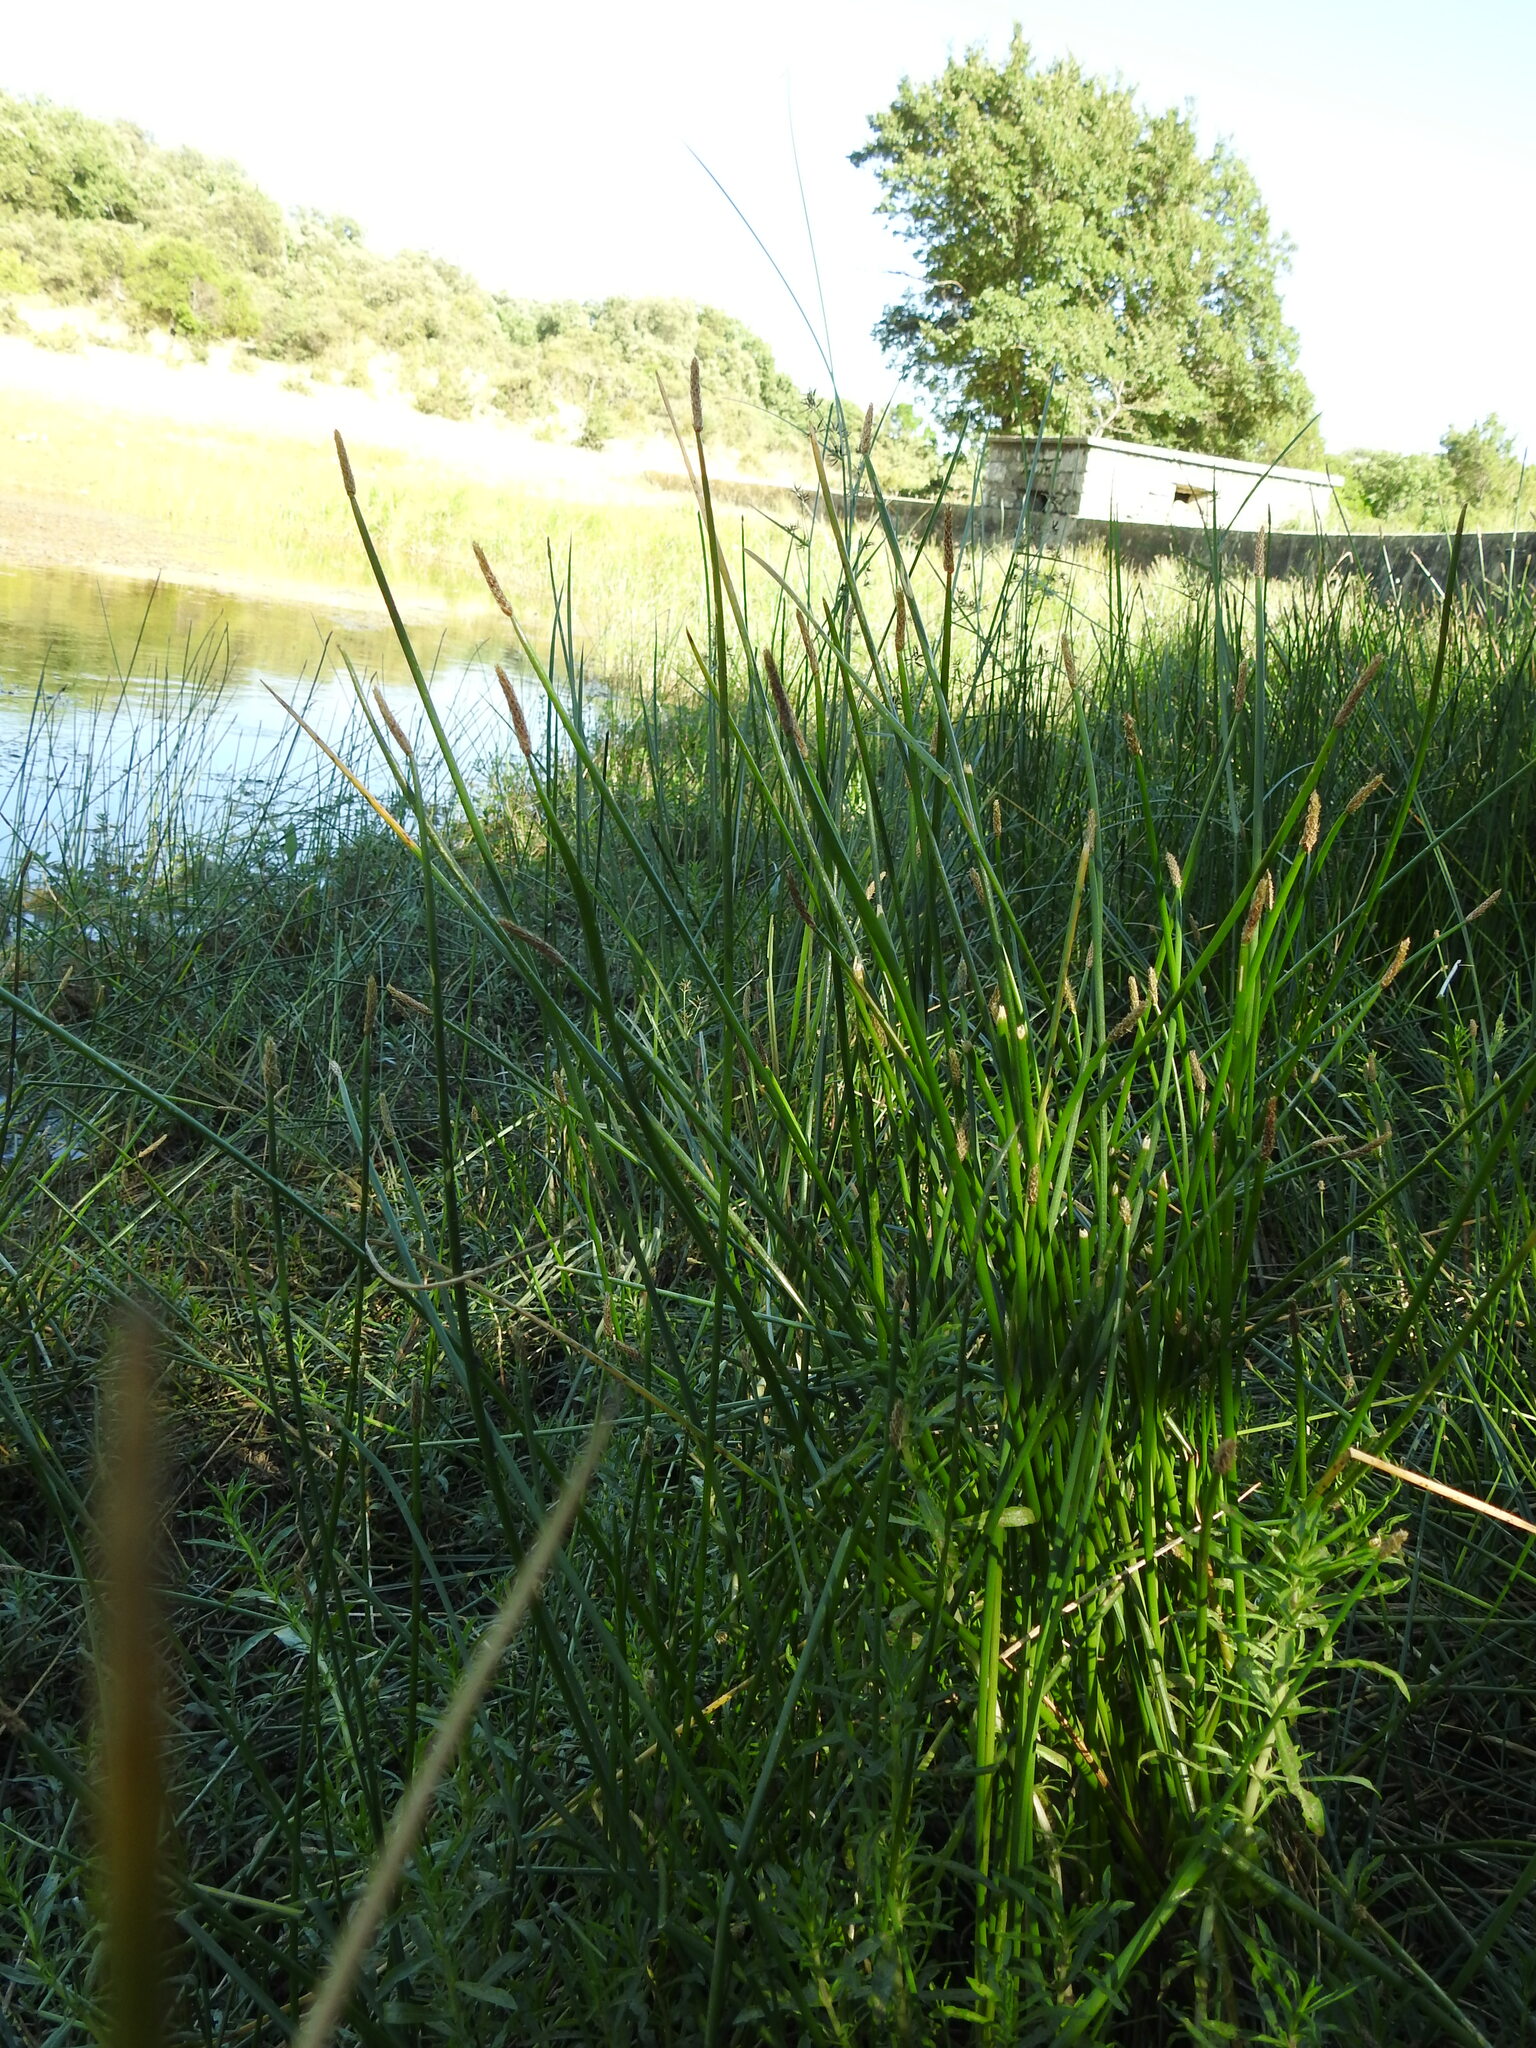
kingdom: Plantae
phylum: Tracheophyta
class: Liliopsida
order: Poales
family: Cyperaceae
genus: Eleocharis
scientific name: Eleocharis palustris
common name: Common spike-rush
